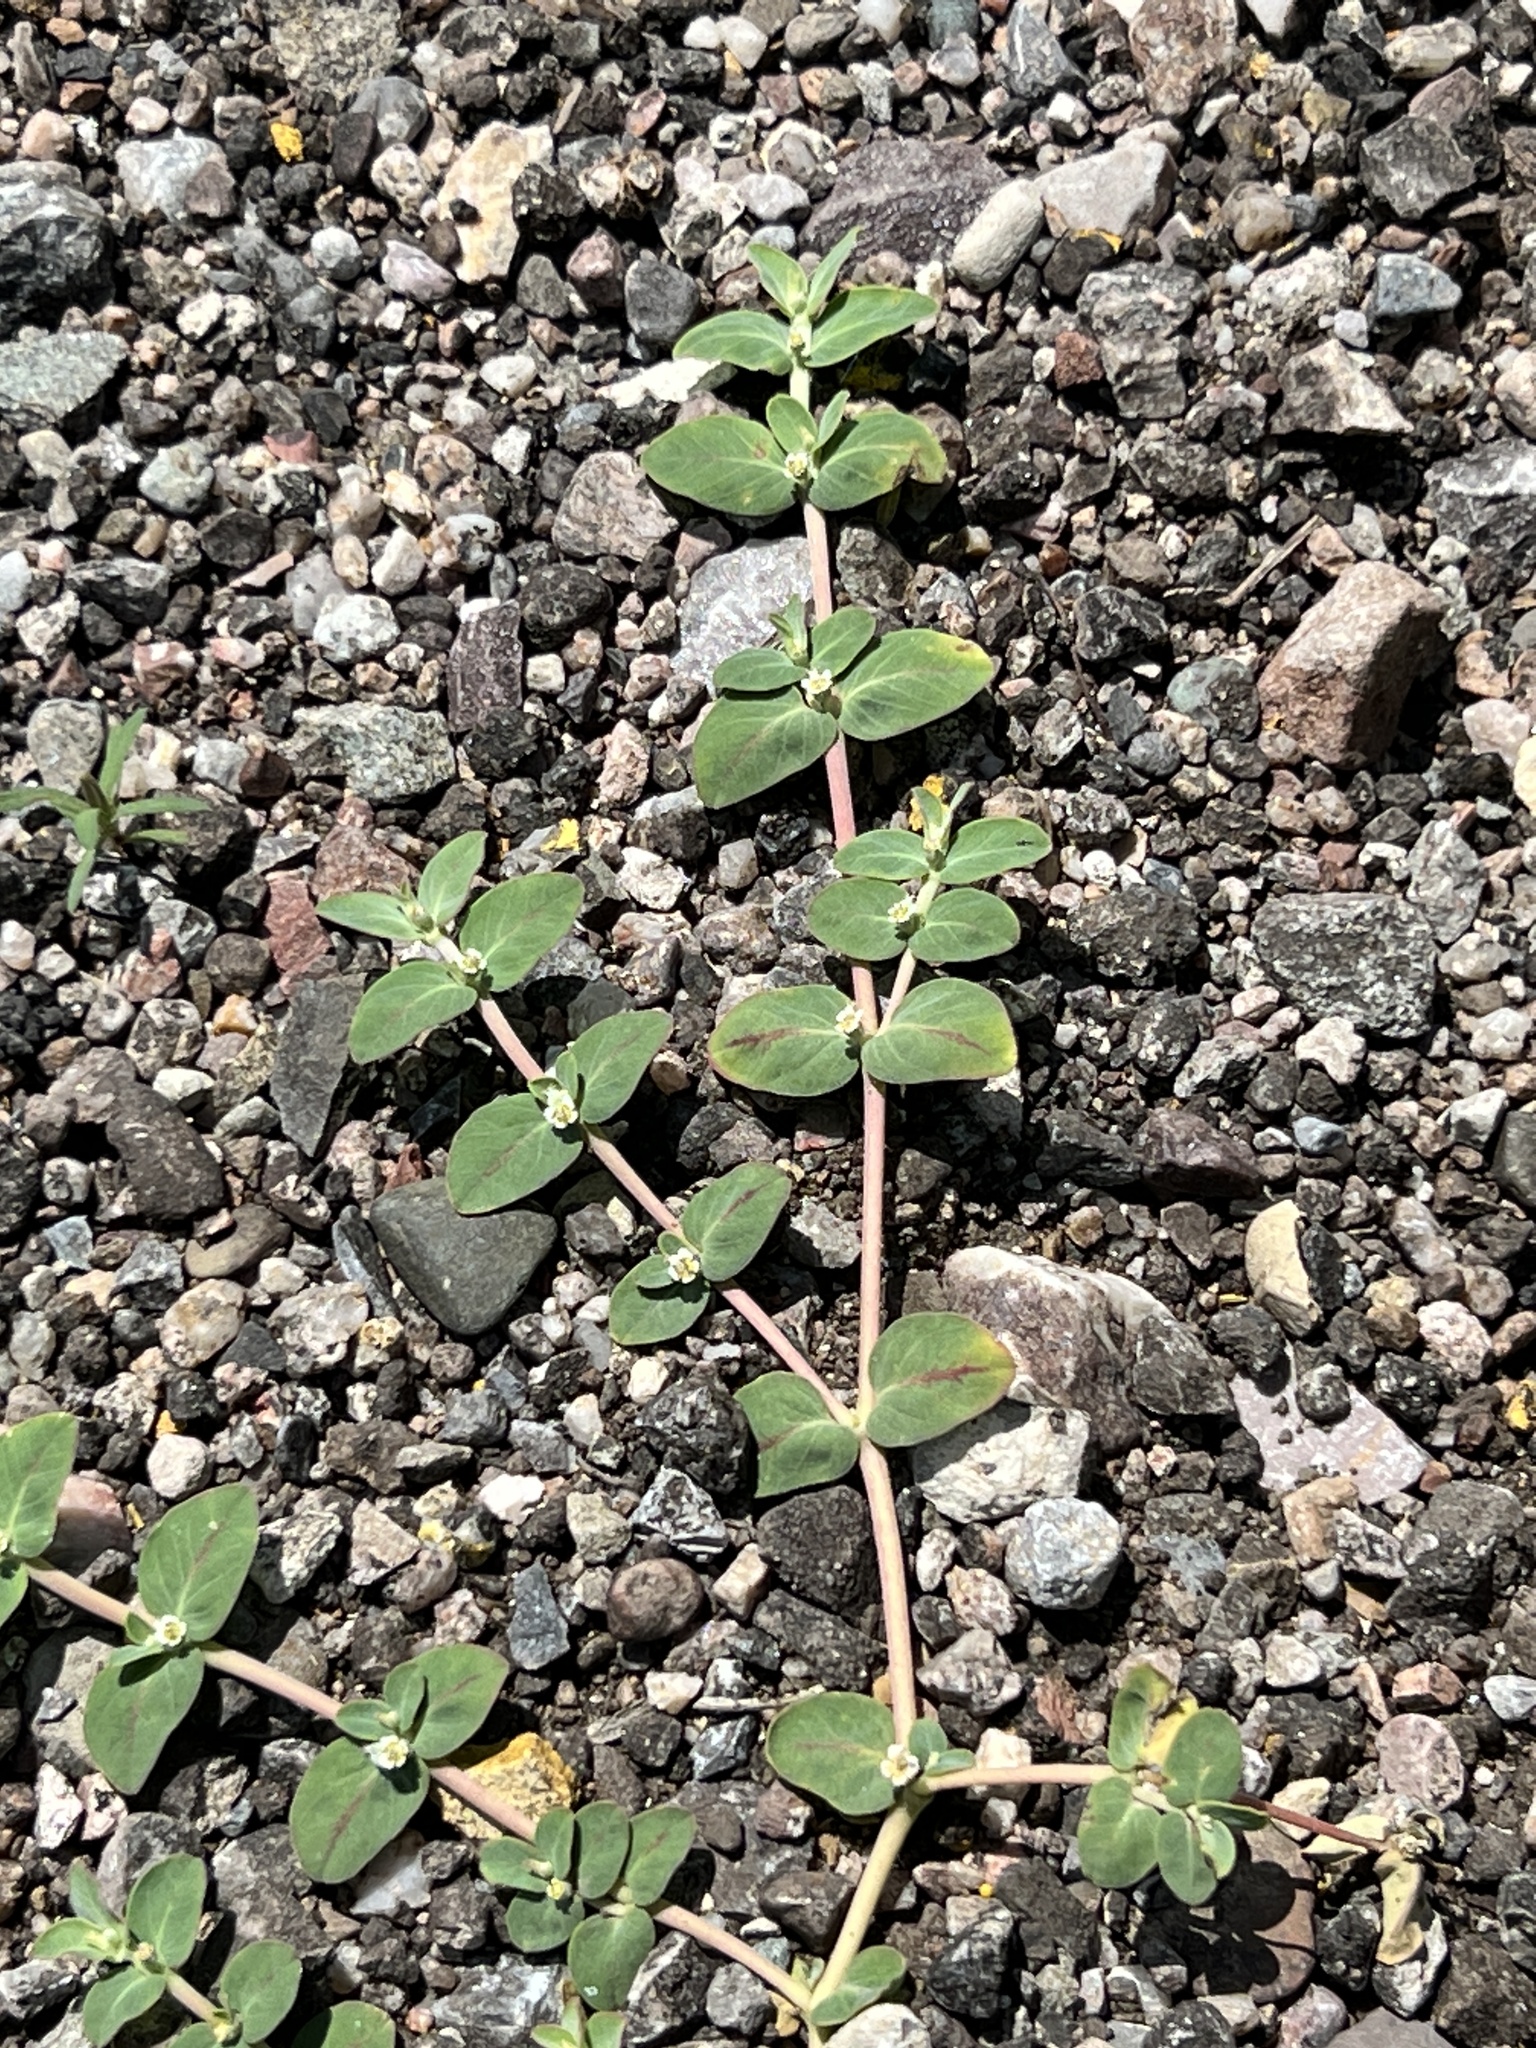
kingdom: Plantae
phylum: Tracheophyta
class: Magnoliopsida
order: Malpighiales
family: Euphorbiaceae
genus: Euphorbia
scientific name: Euphorbia pediculifera
